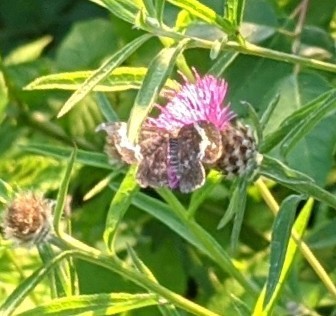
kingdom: Animalia
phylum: Arthropoda
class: Insecta
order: Lepidoptera
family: Geometridae
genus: Rheumaptera
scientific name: Rheumaptera
